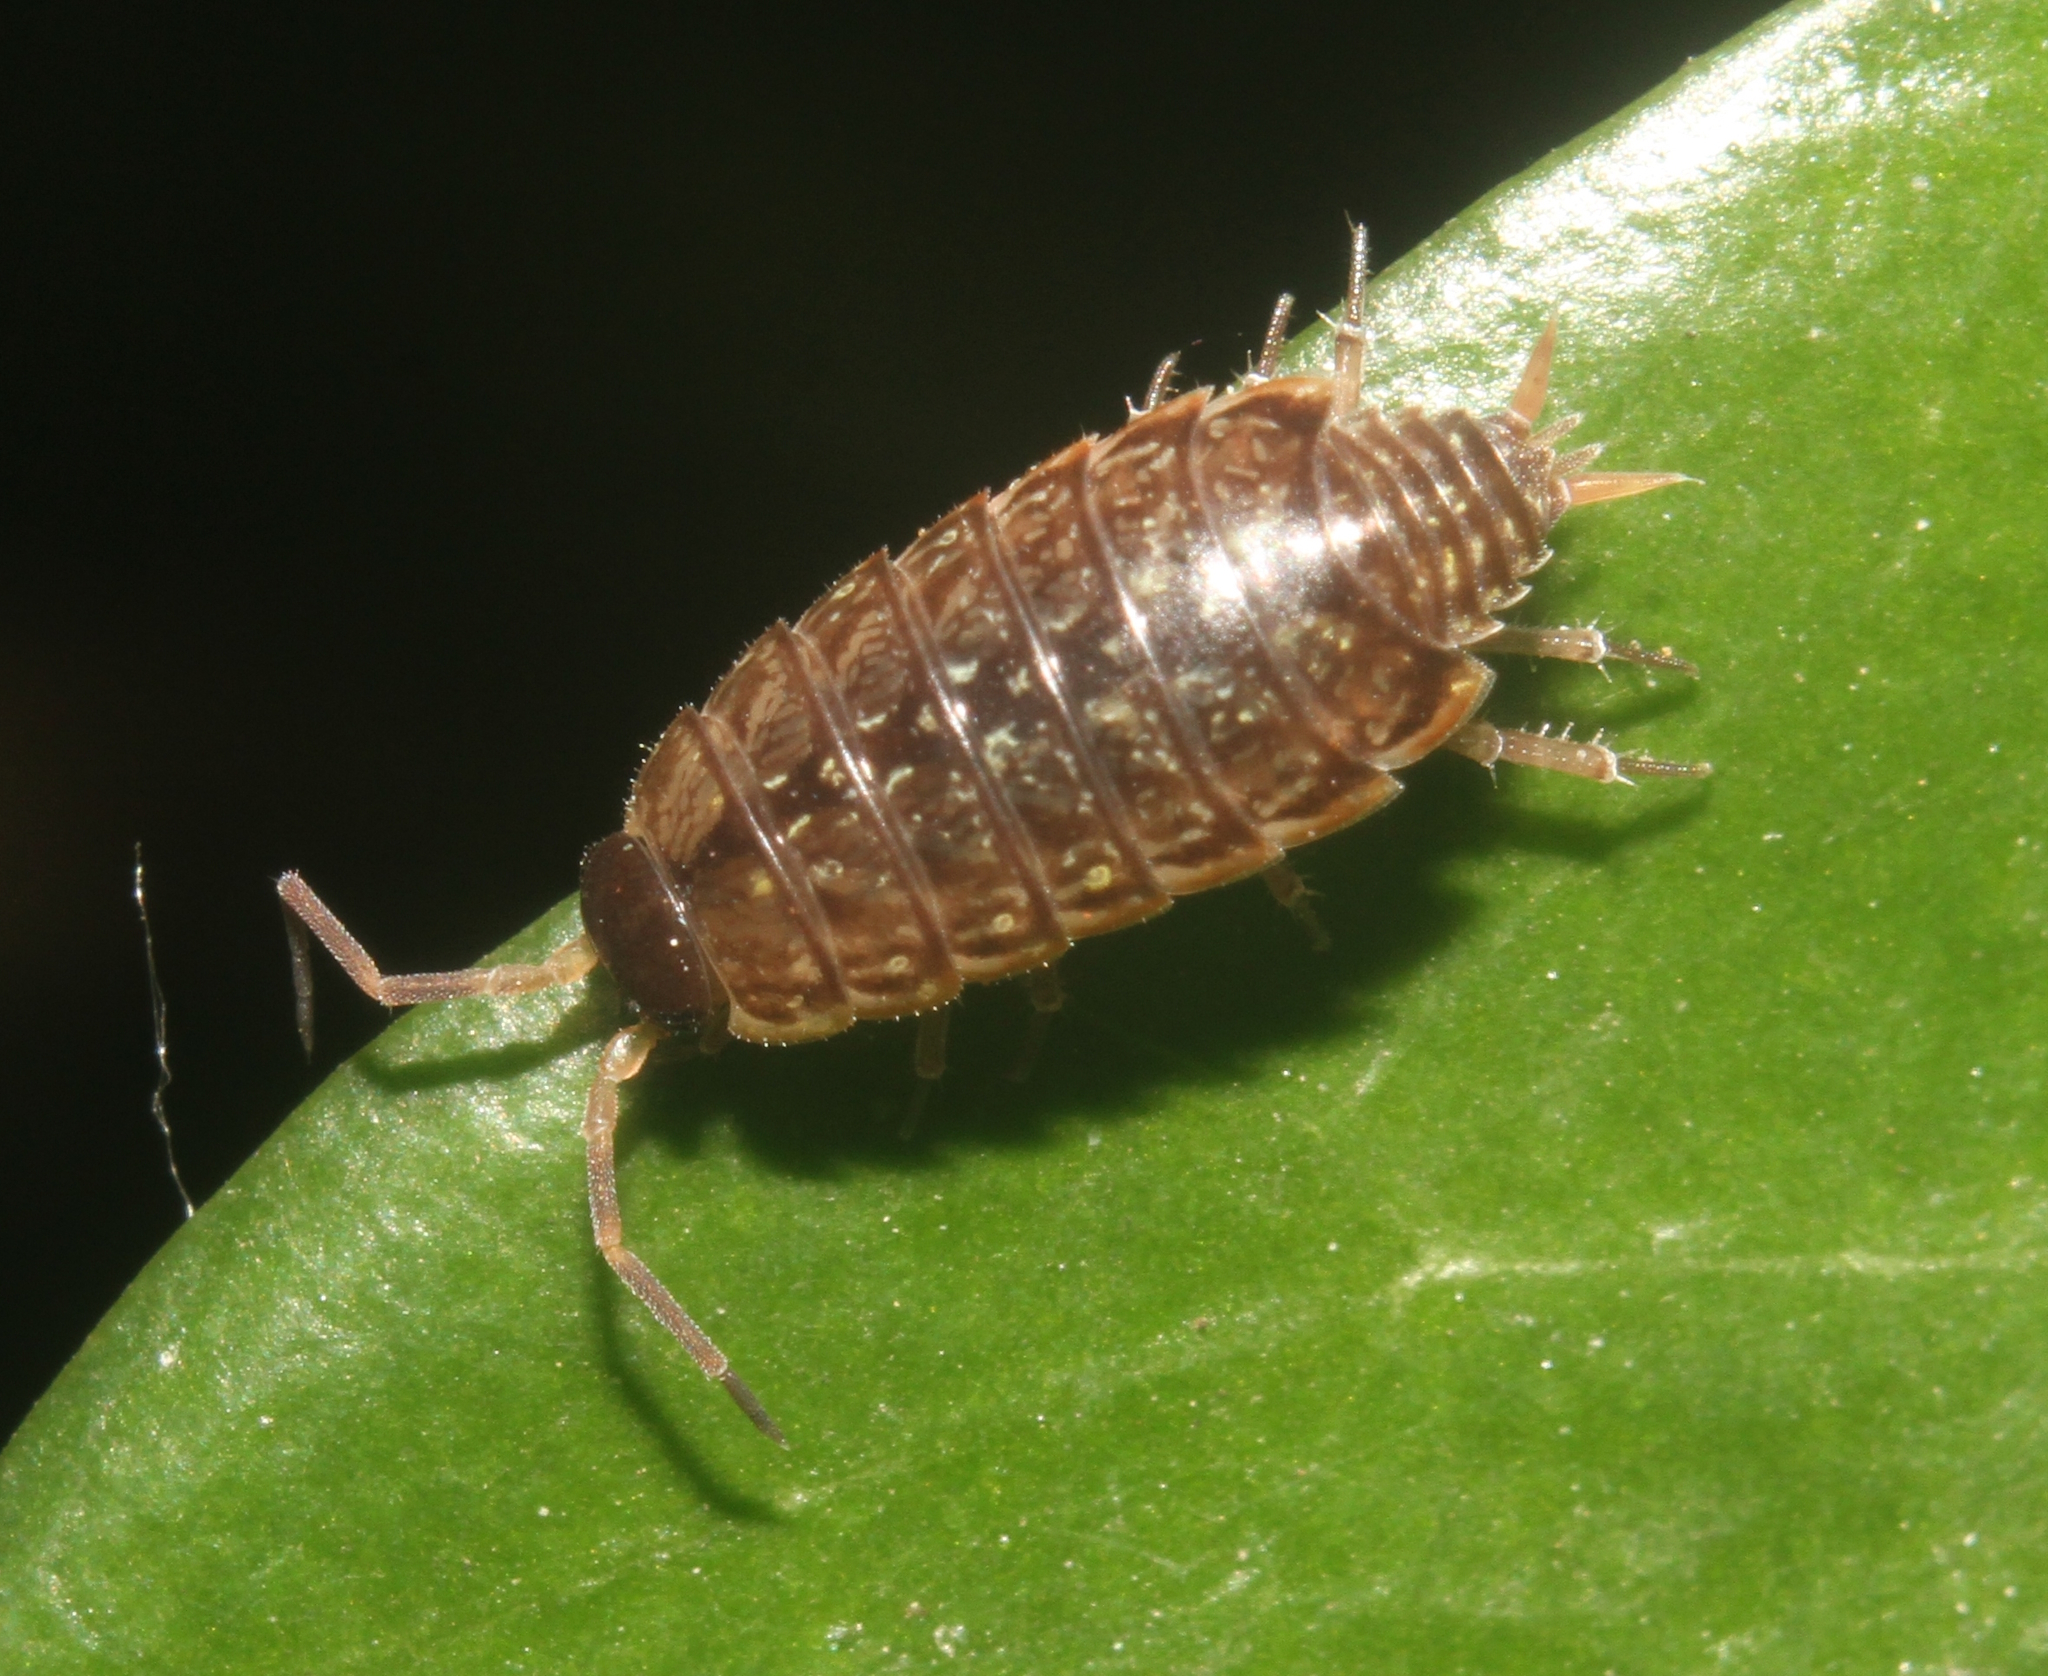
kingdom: Animalia
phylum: Arthropoda
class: Malacostraca
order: Isopoda
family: Philosciidae
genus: Philoscia
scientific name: Philoscia muscorum
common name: Common striped woodlouse
